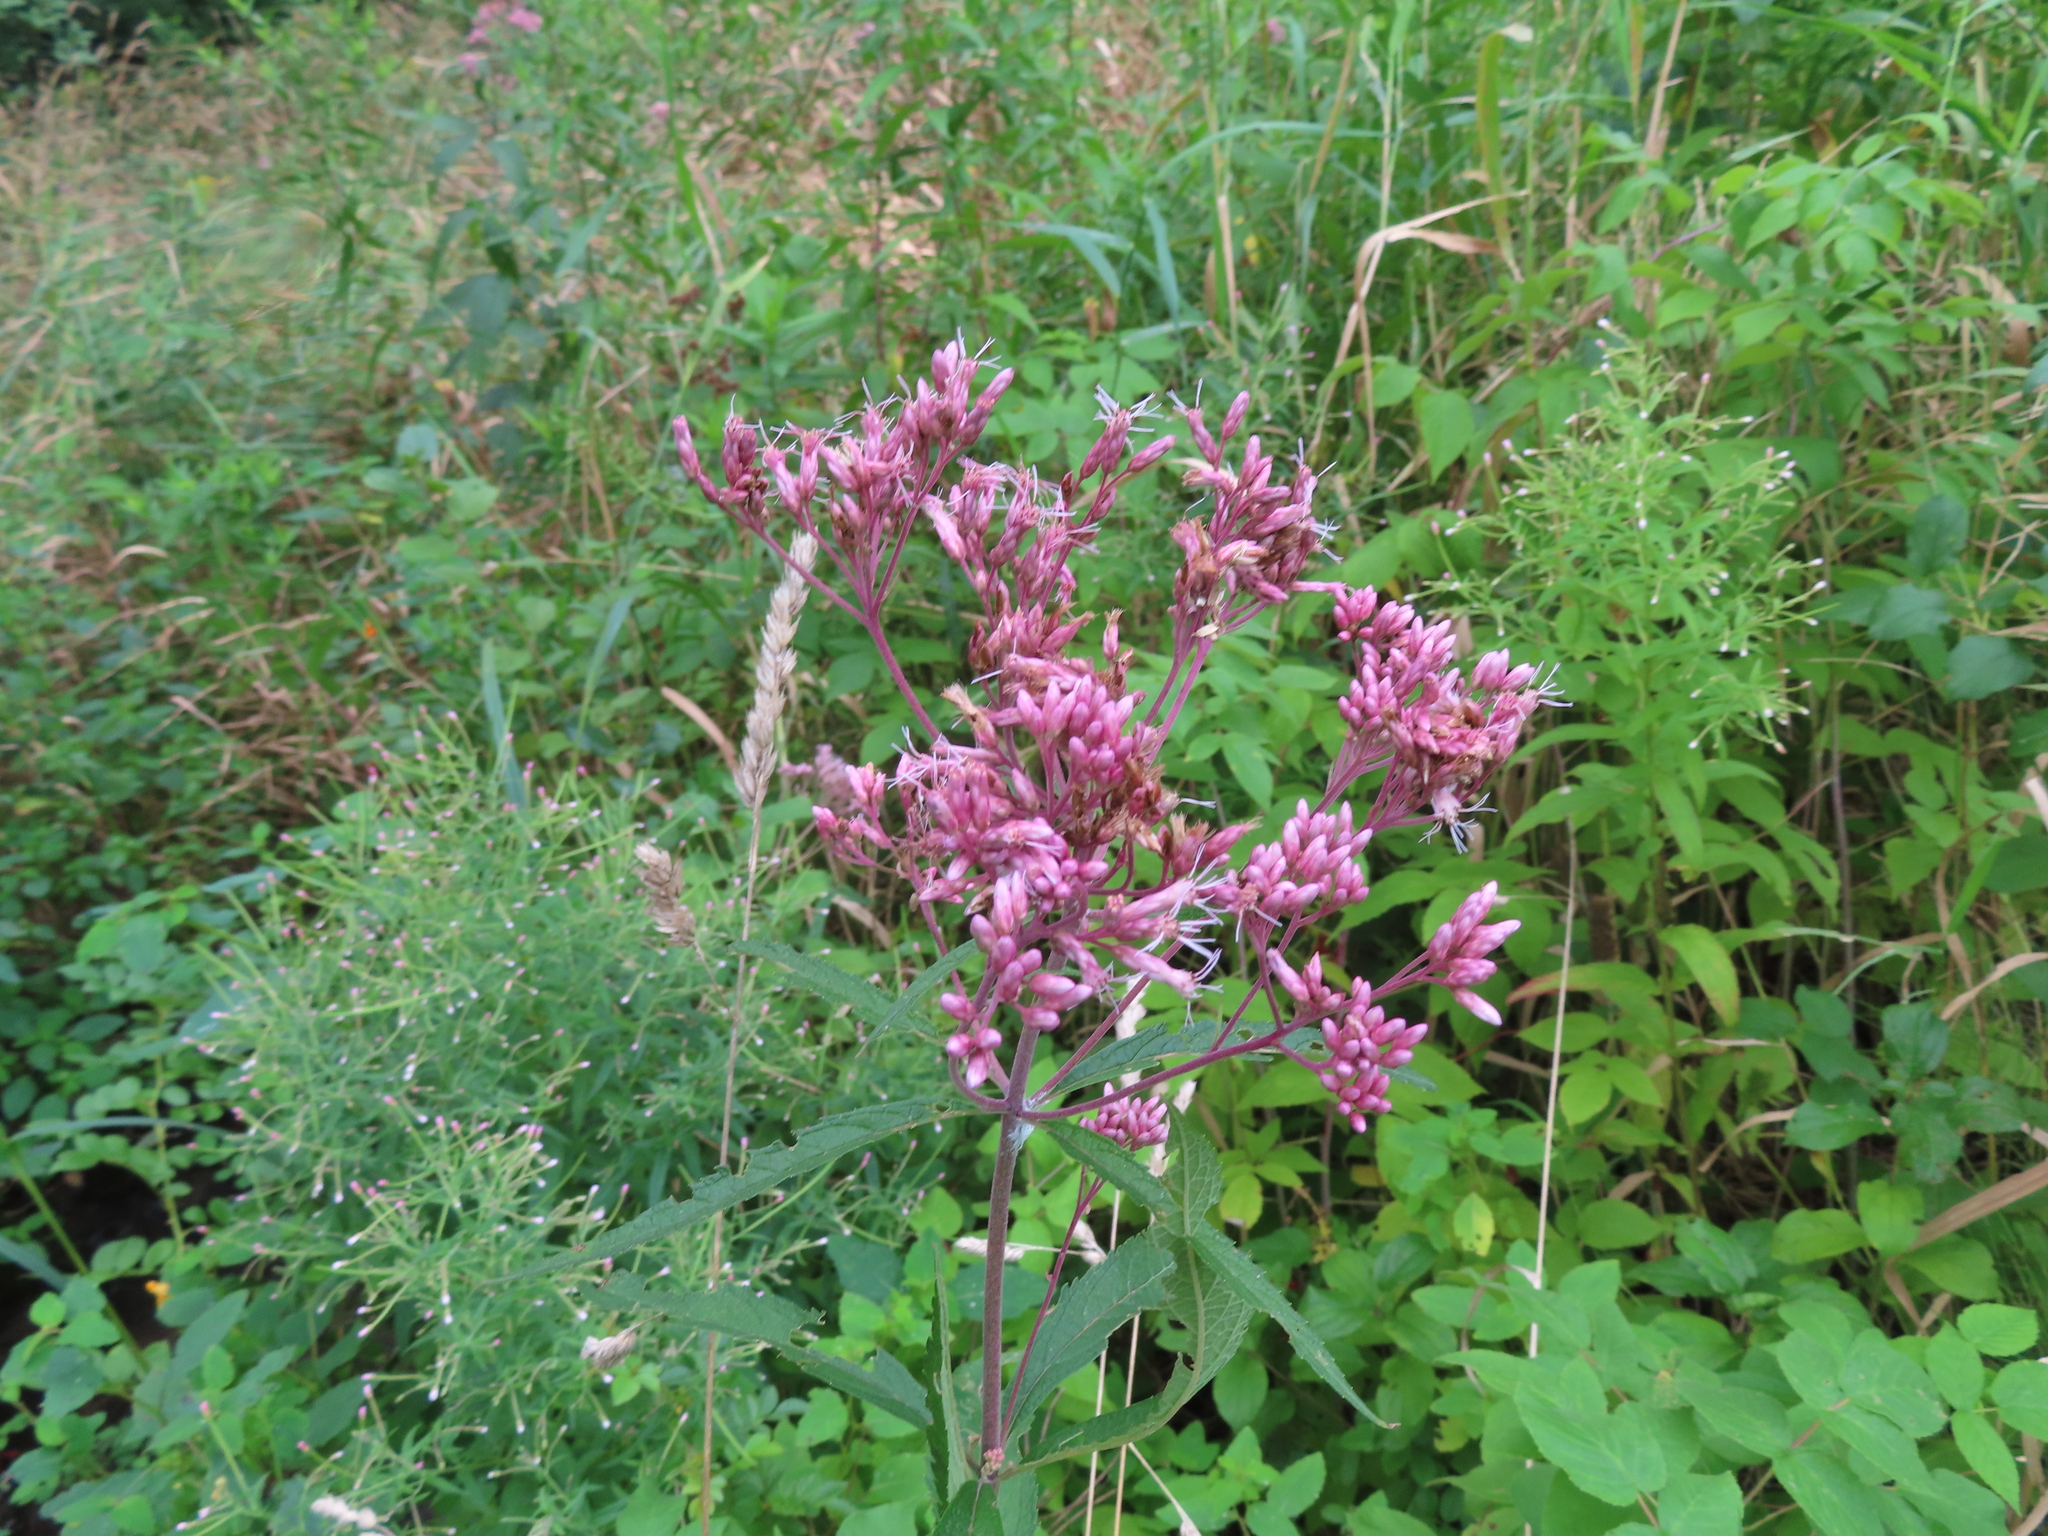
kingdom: Plantae
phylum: Tracheophyta
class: Magnoliopsida
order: Asterales
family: Asteraceae
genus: Eutrochium
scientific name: Eutrochium maculatum
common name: Spotted joe pye weed
